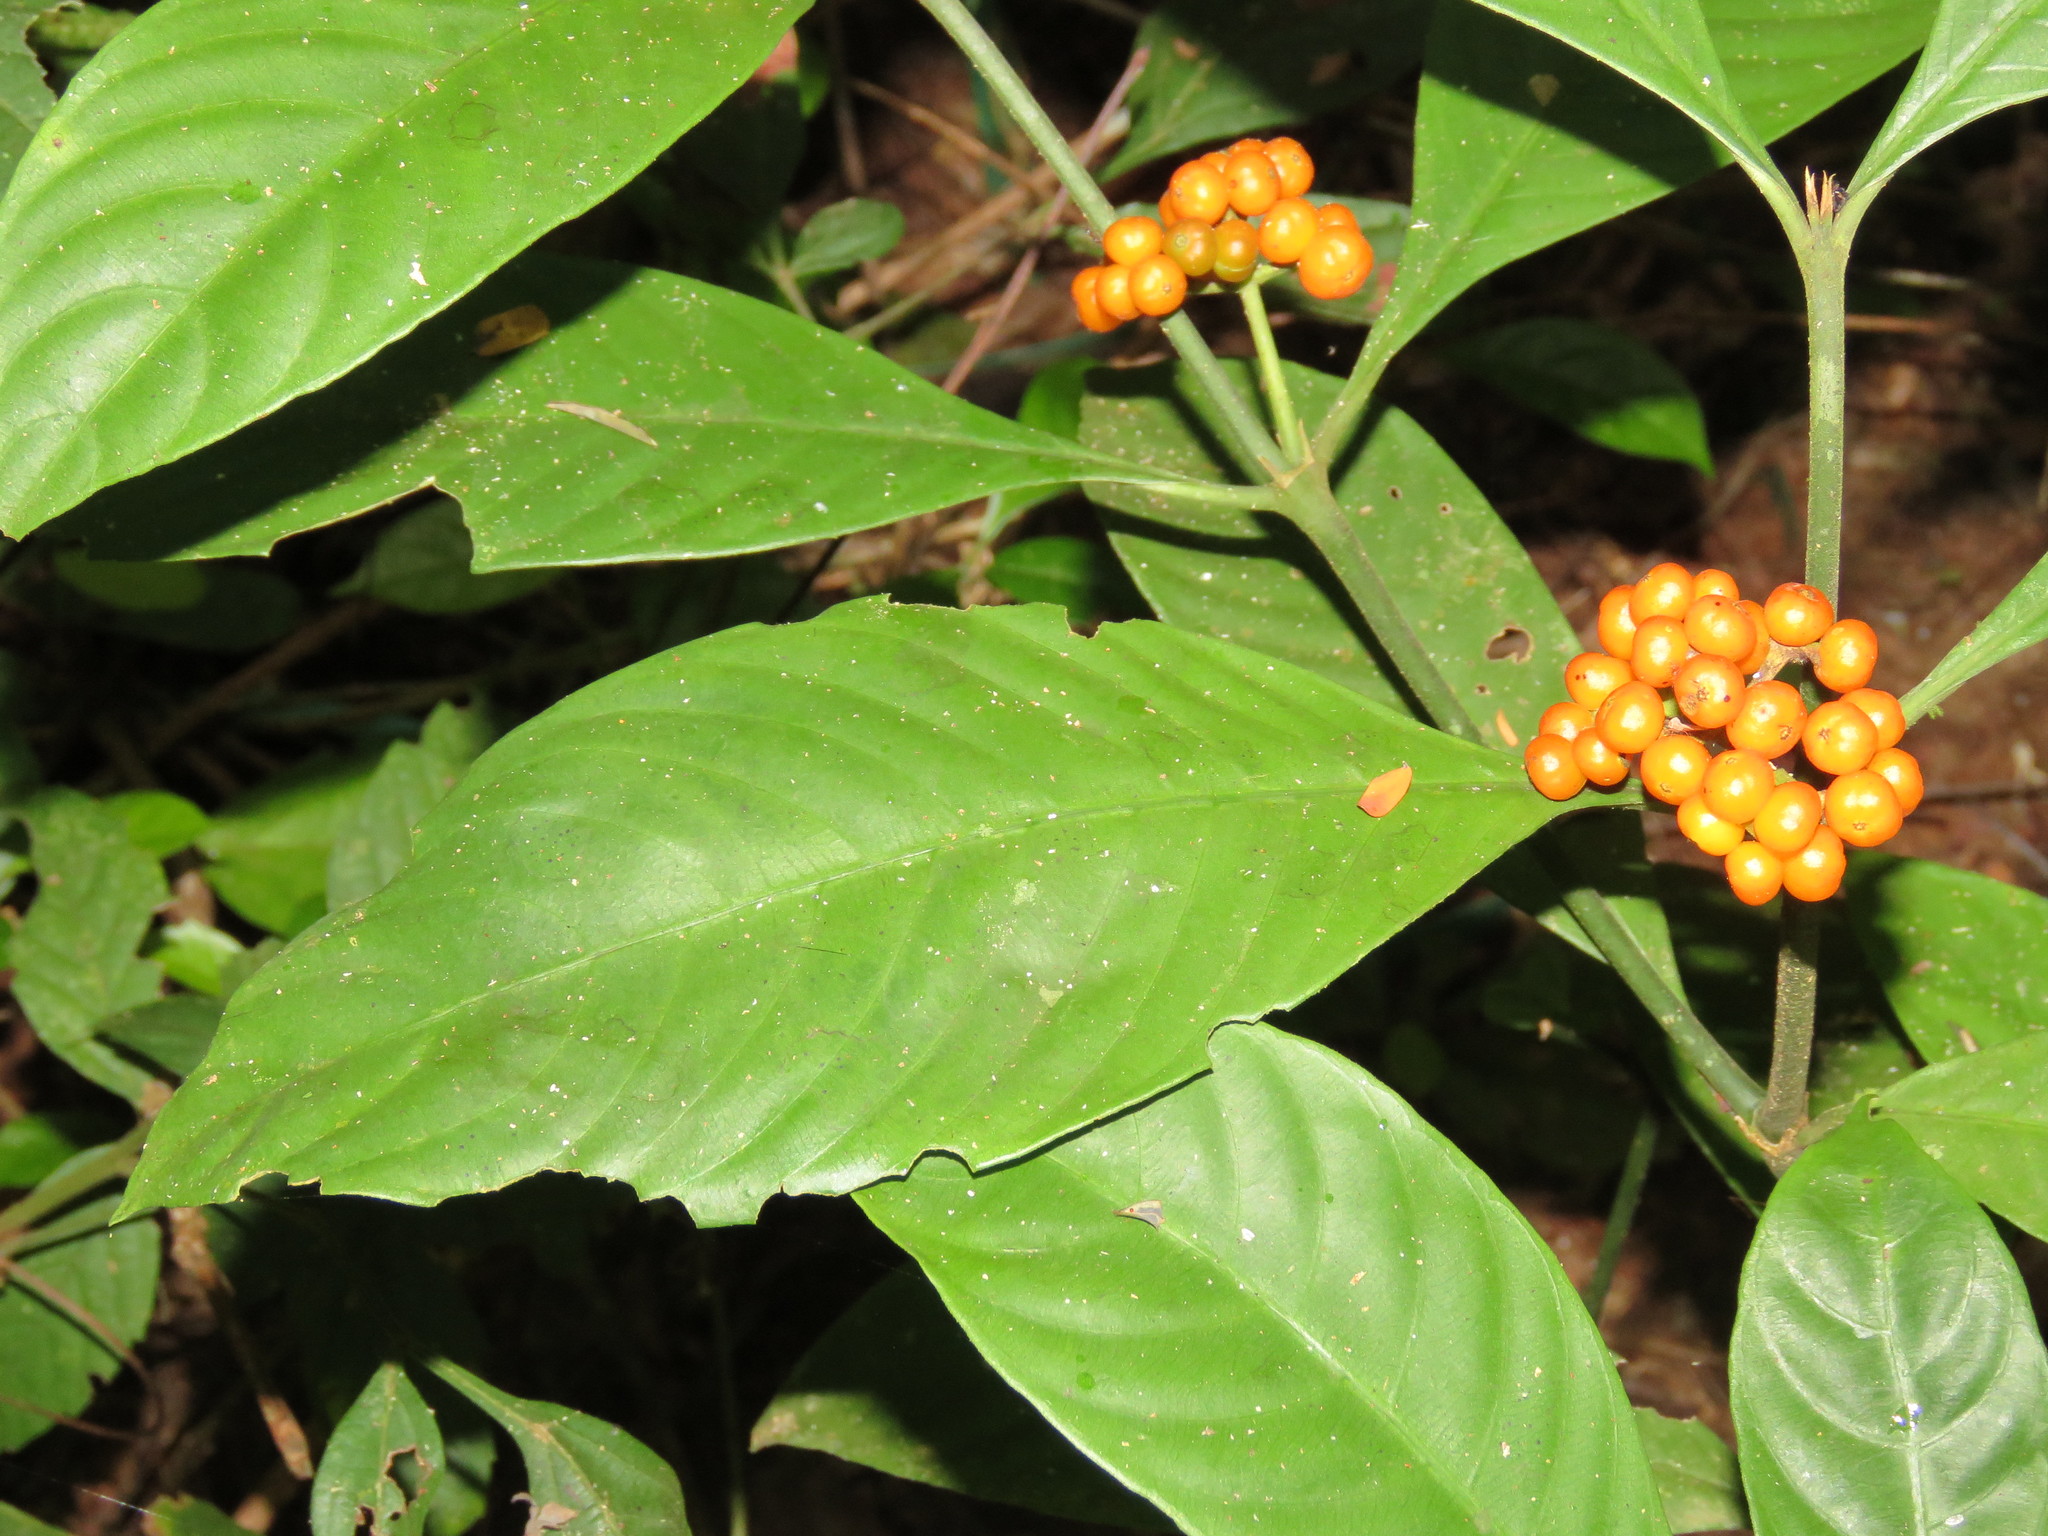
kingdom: Plantae
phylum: Tracheophyta
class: Magnoliopsida
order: Gentianales
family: Rubiaceae
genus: Palicourea
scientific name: Palicourea racemosa
